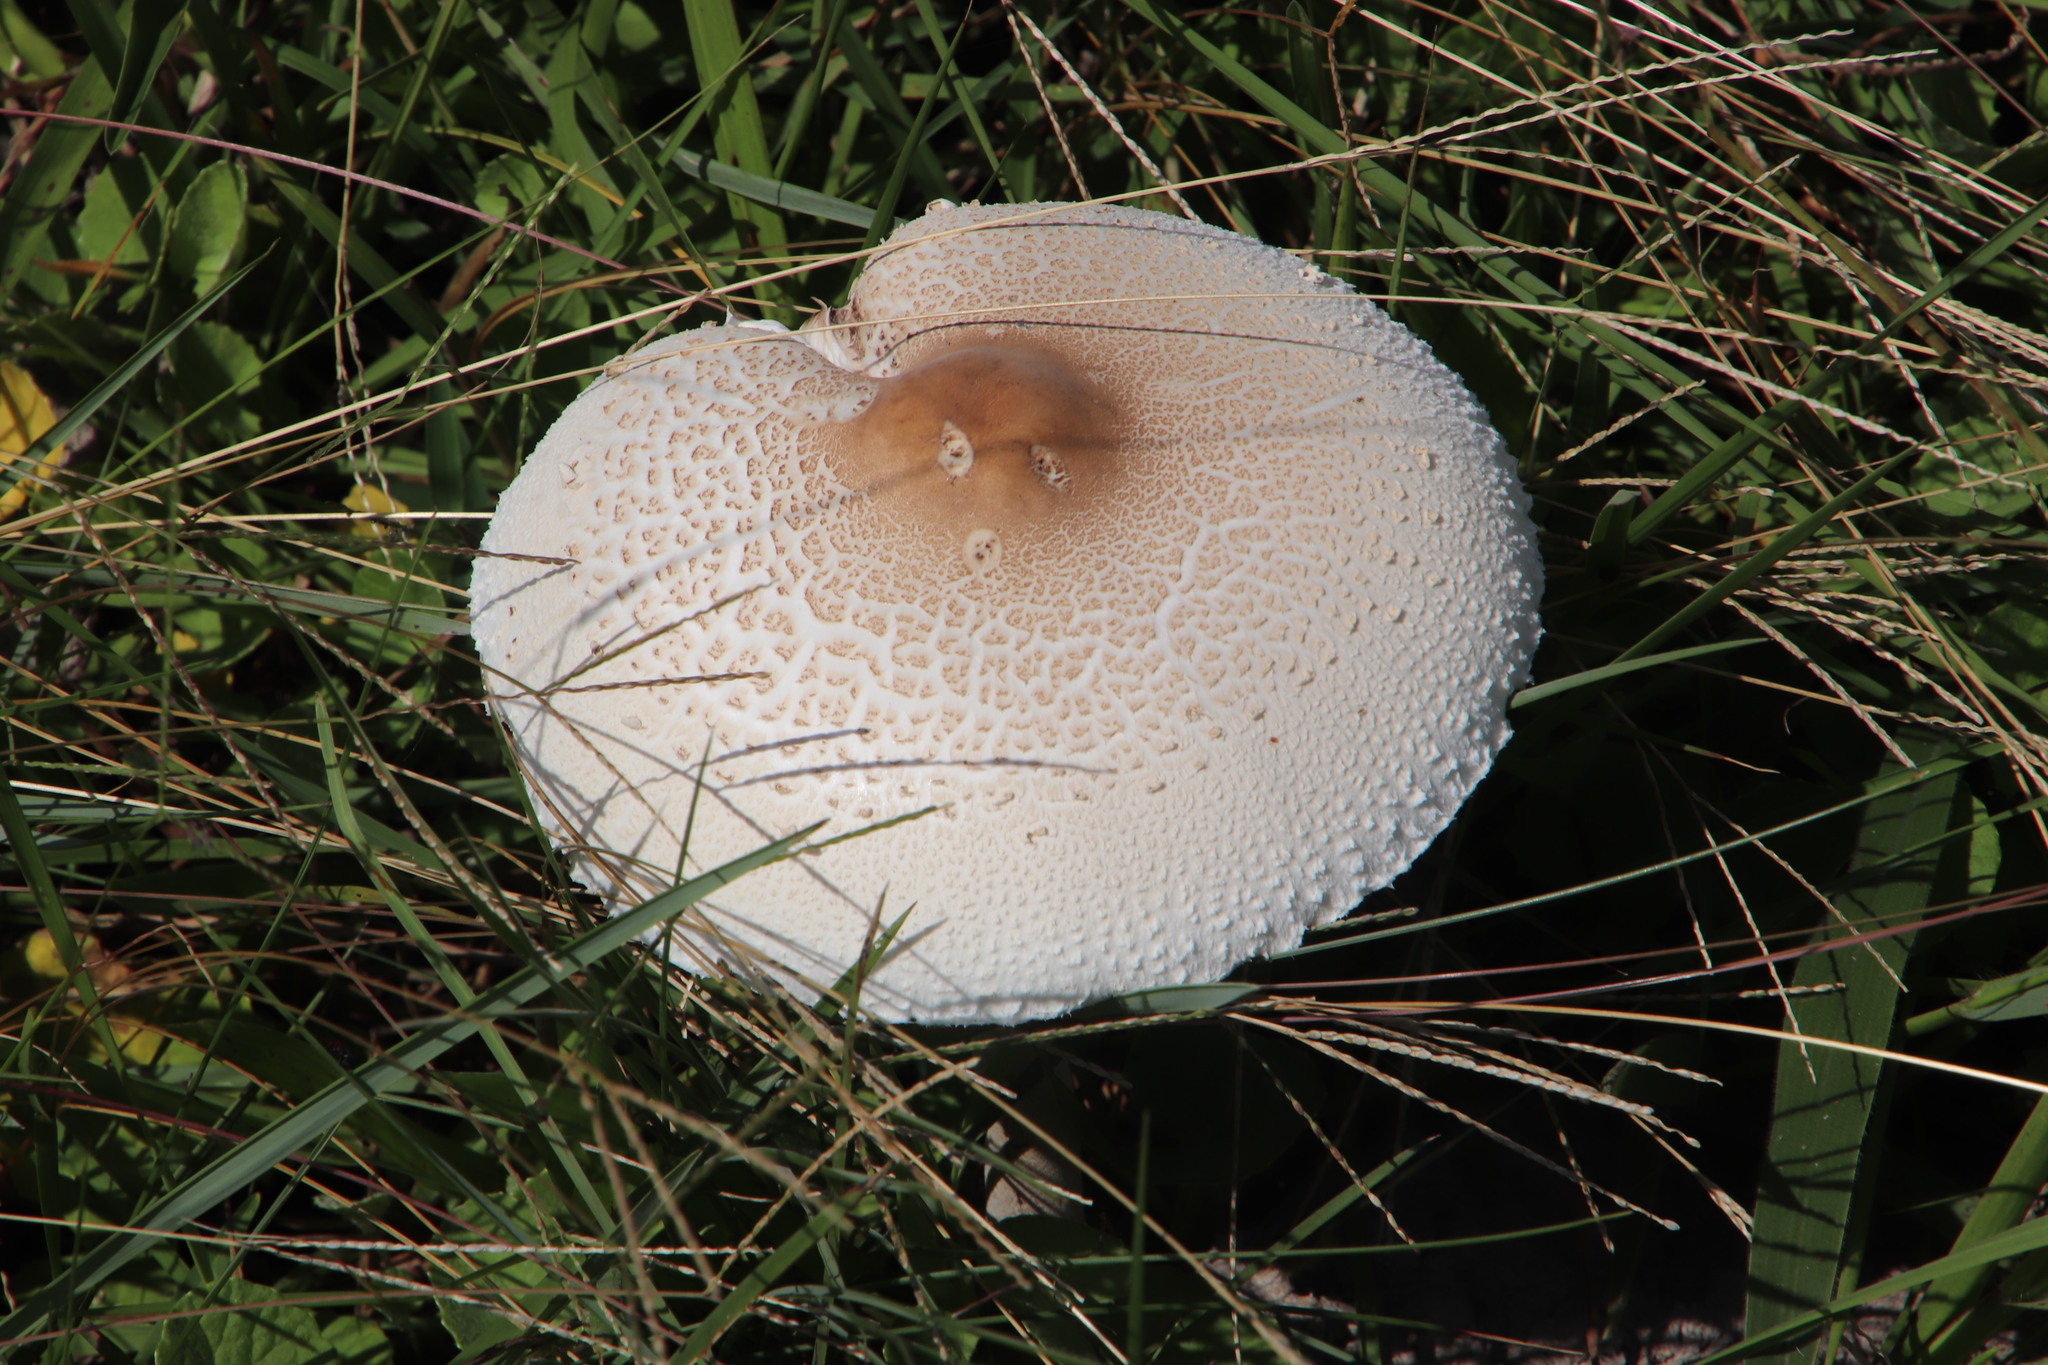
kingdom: Fungi
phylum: Basidiomycota
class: Agaricomycetes
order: Agaricales
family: Agaricaceae
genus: Macrolepiota
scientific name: Macrolepiota zeyheri
